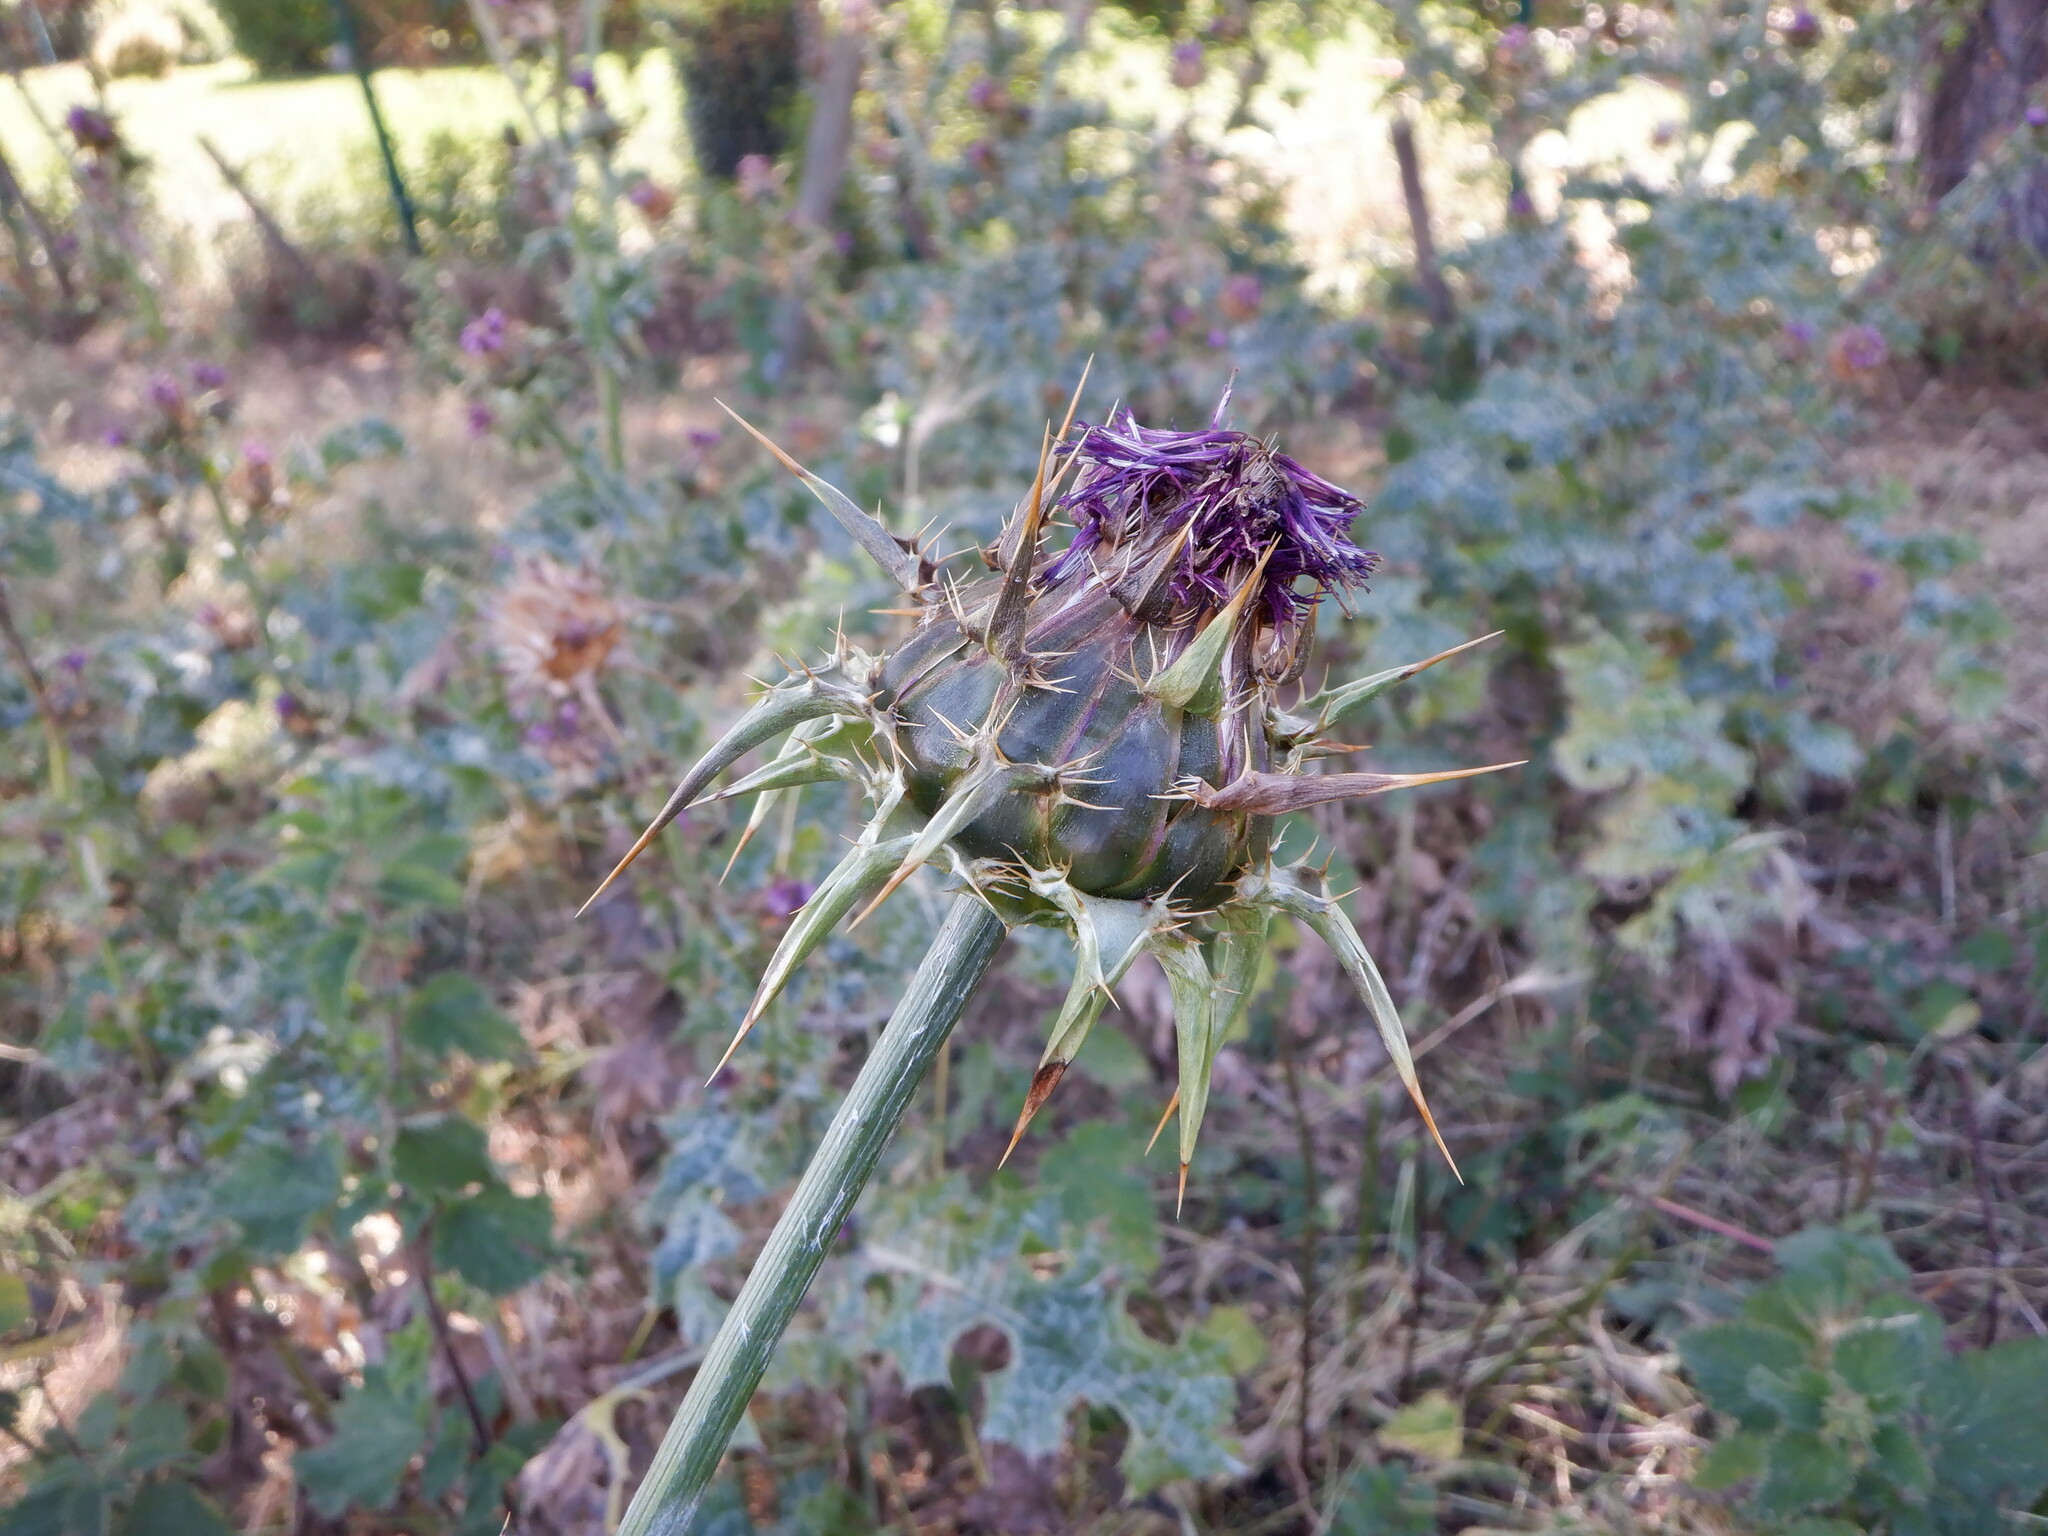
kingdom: Plantae
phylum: Tracheophyta
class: Magnoliopsida
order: Asterales
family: Asteraceae
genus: Silybum
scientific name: Silybum marianum
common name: Milk thistle
